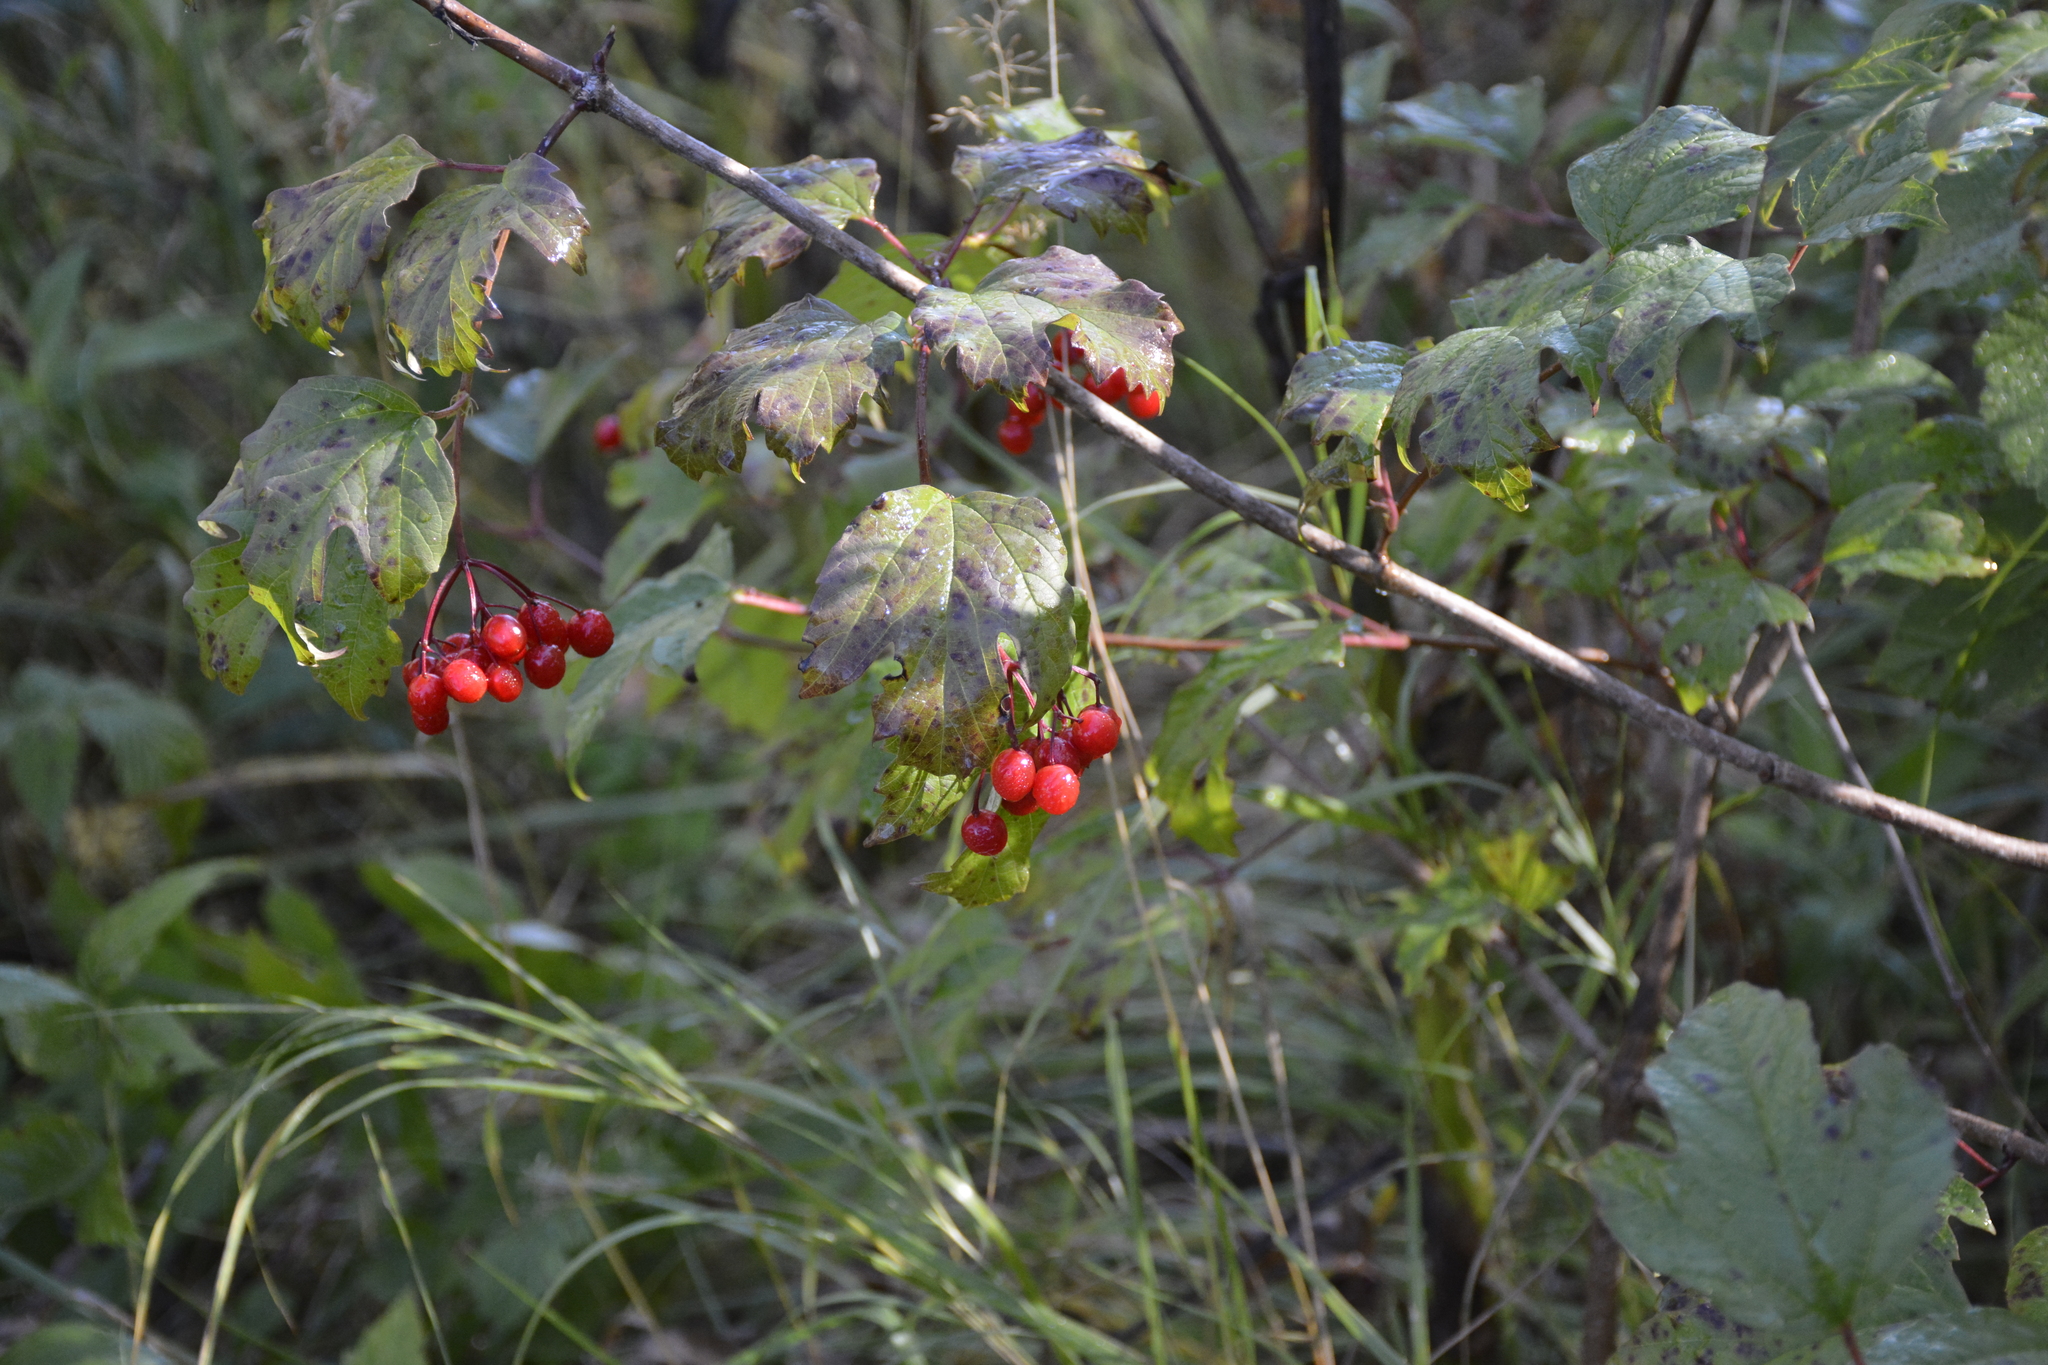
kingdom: Plantae
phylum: Tracheophyta
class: Magnoliopsida
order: Dipsacales
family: Viburnaceae
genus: Viburnum
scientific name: Viburnum opulus
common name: Guelder-rose
